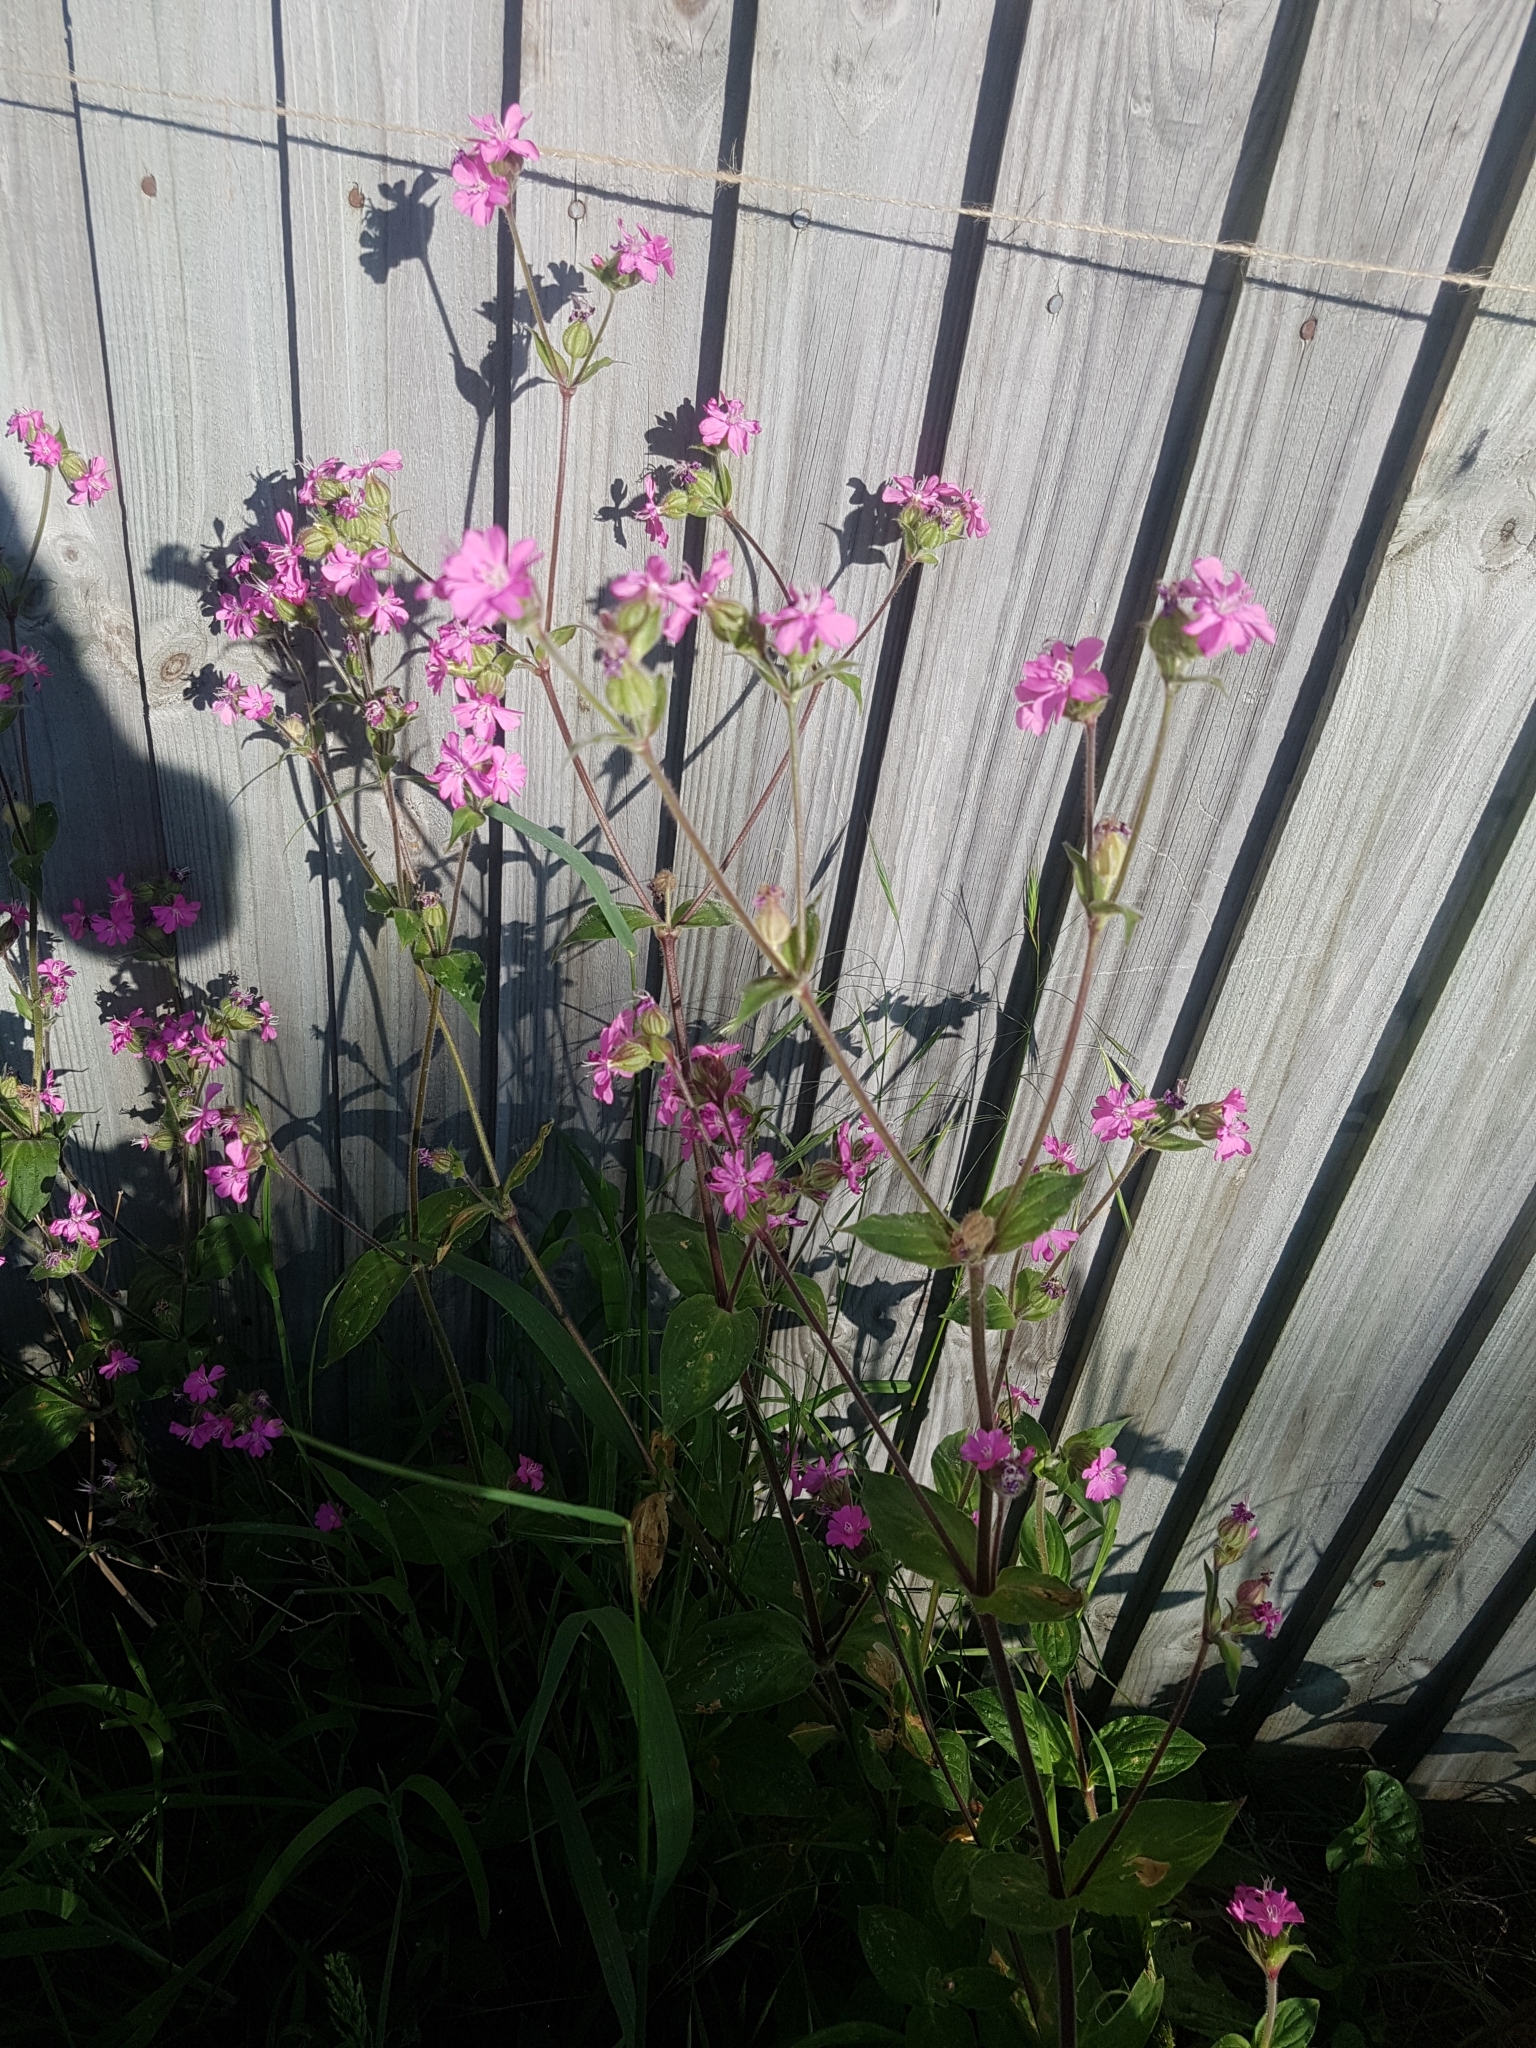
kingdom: Plantae
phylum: Tracheophyta
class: Magnoliopsida
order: Caryophyllales
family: Caryophyllaceae
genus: Silene
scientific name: Silene dioica
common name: Red campion
